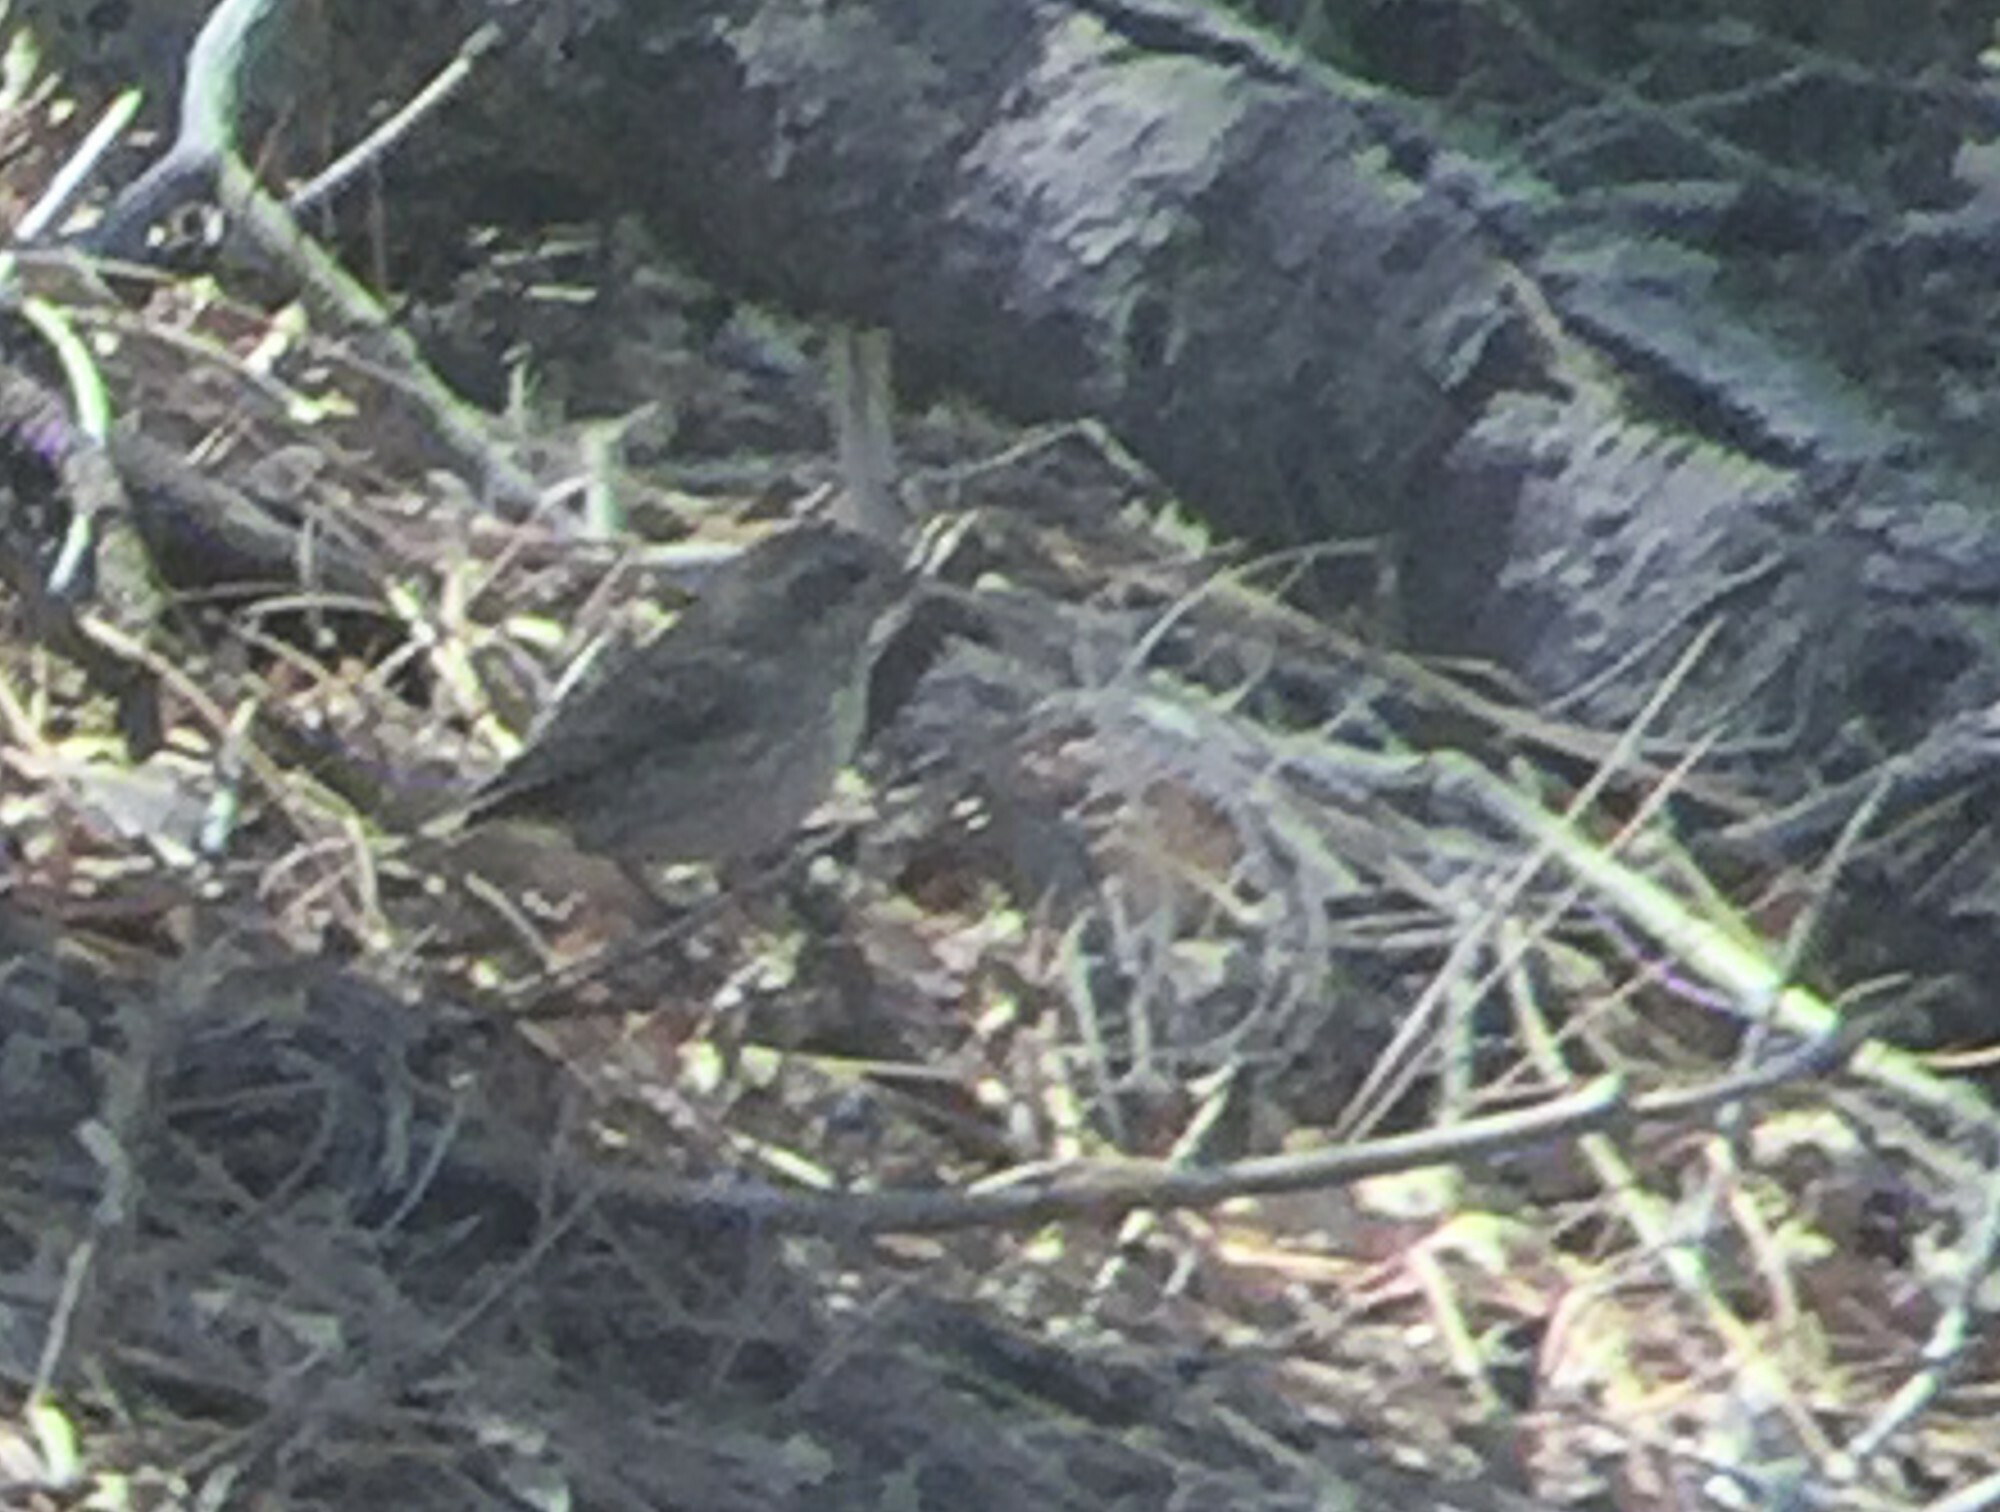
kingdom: Animalia
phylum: Chordata
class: Aves
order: Passeriformes
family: Fringillidae
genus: Haemorhous
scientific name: Haemorhous purpureus
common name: Purple finch
